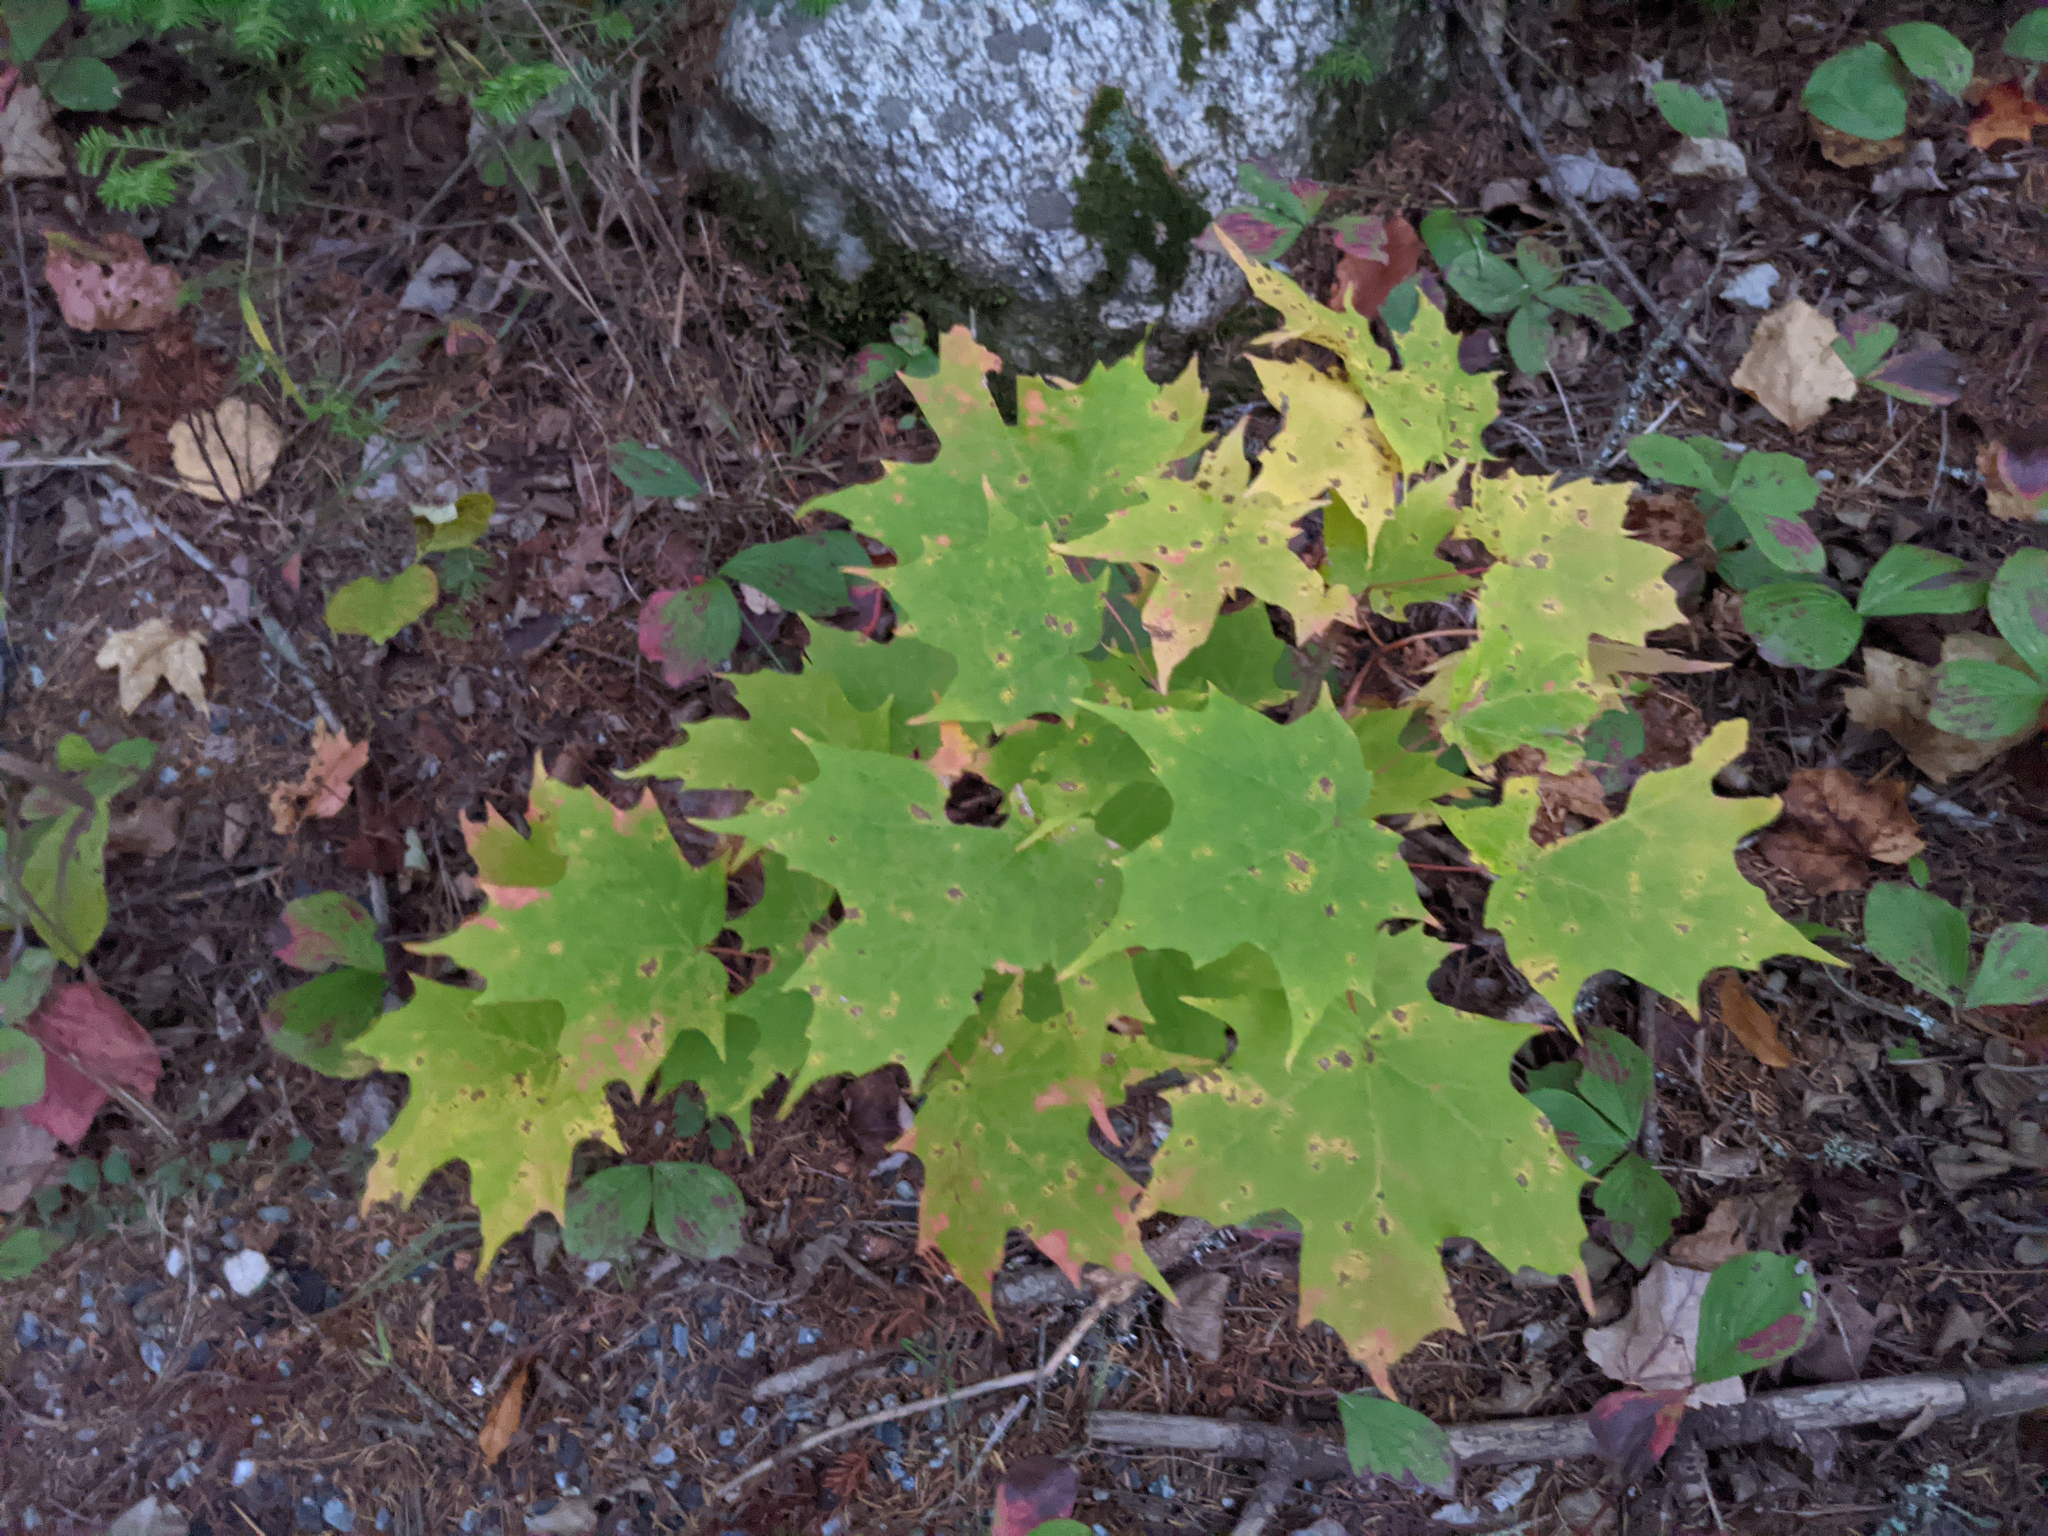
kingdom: Plantae
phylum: Tracheophyta
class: Magnoliopsida
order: Sapindales
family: Sapindaceae
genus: Acer
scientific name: Acer saccharum
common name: Sugar maple
